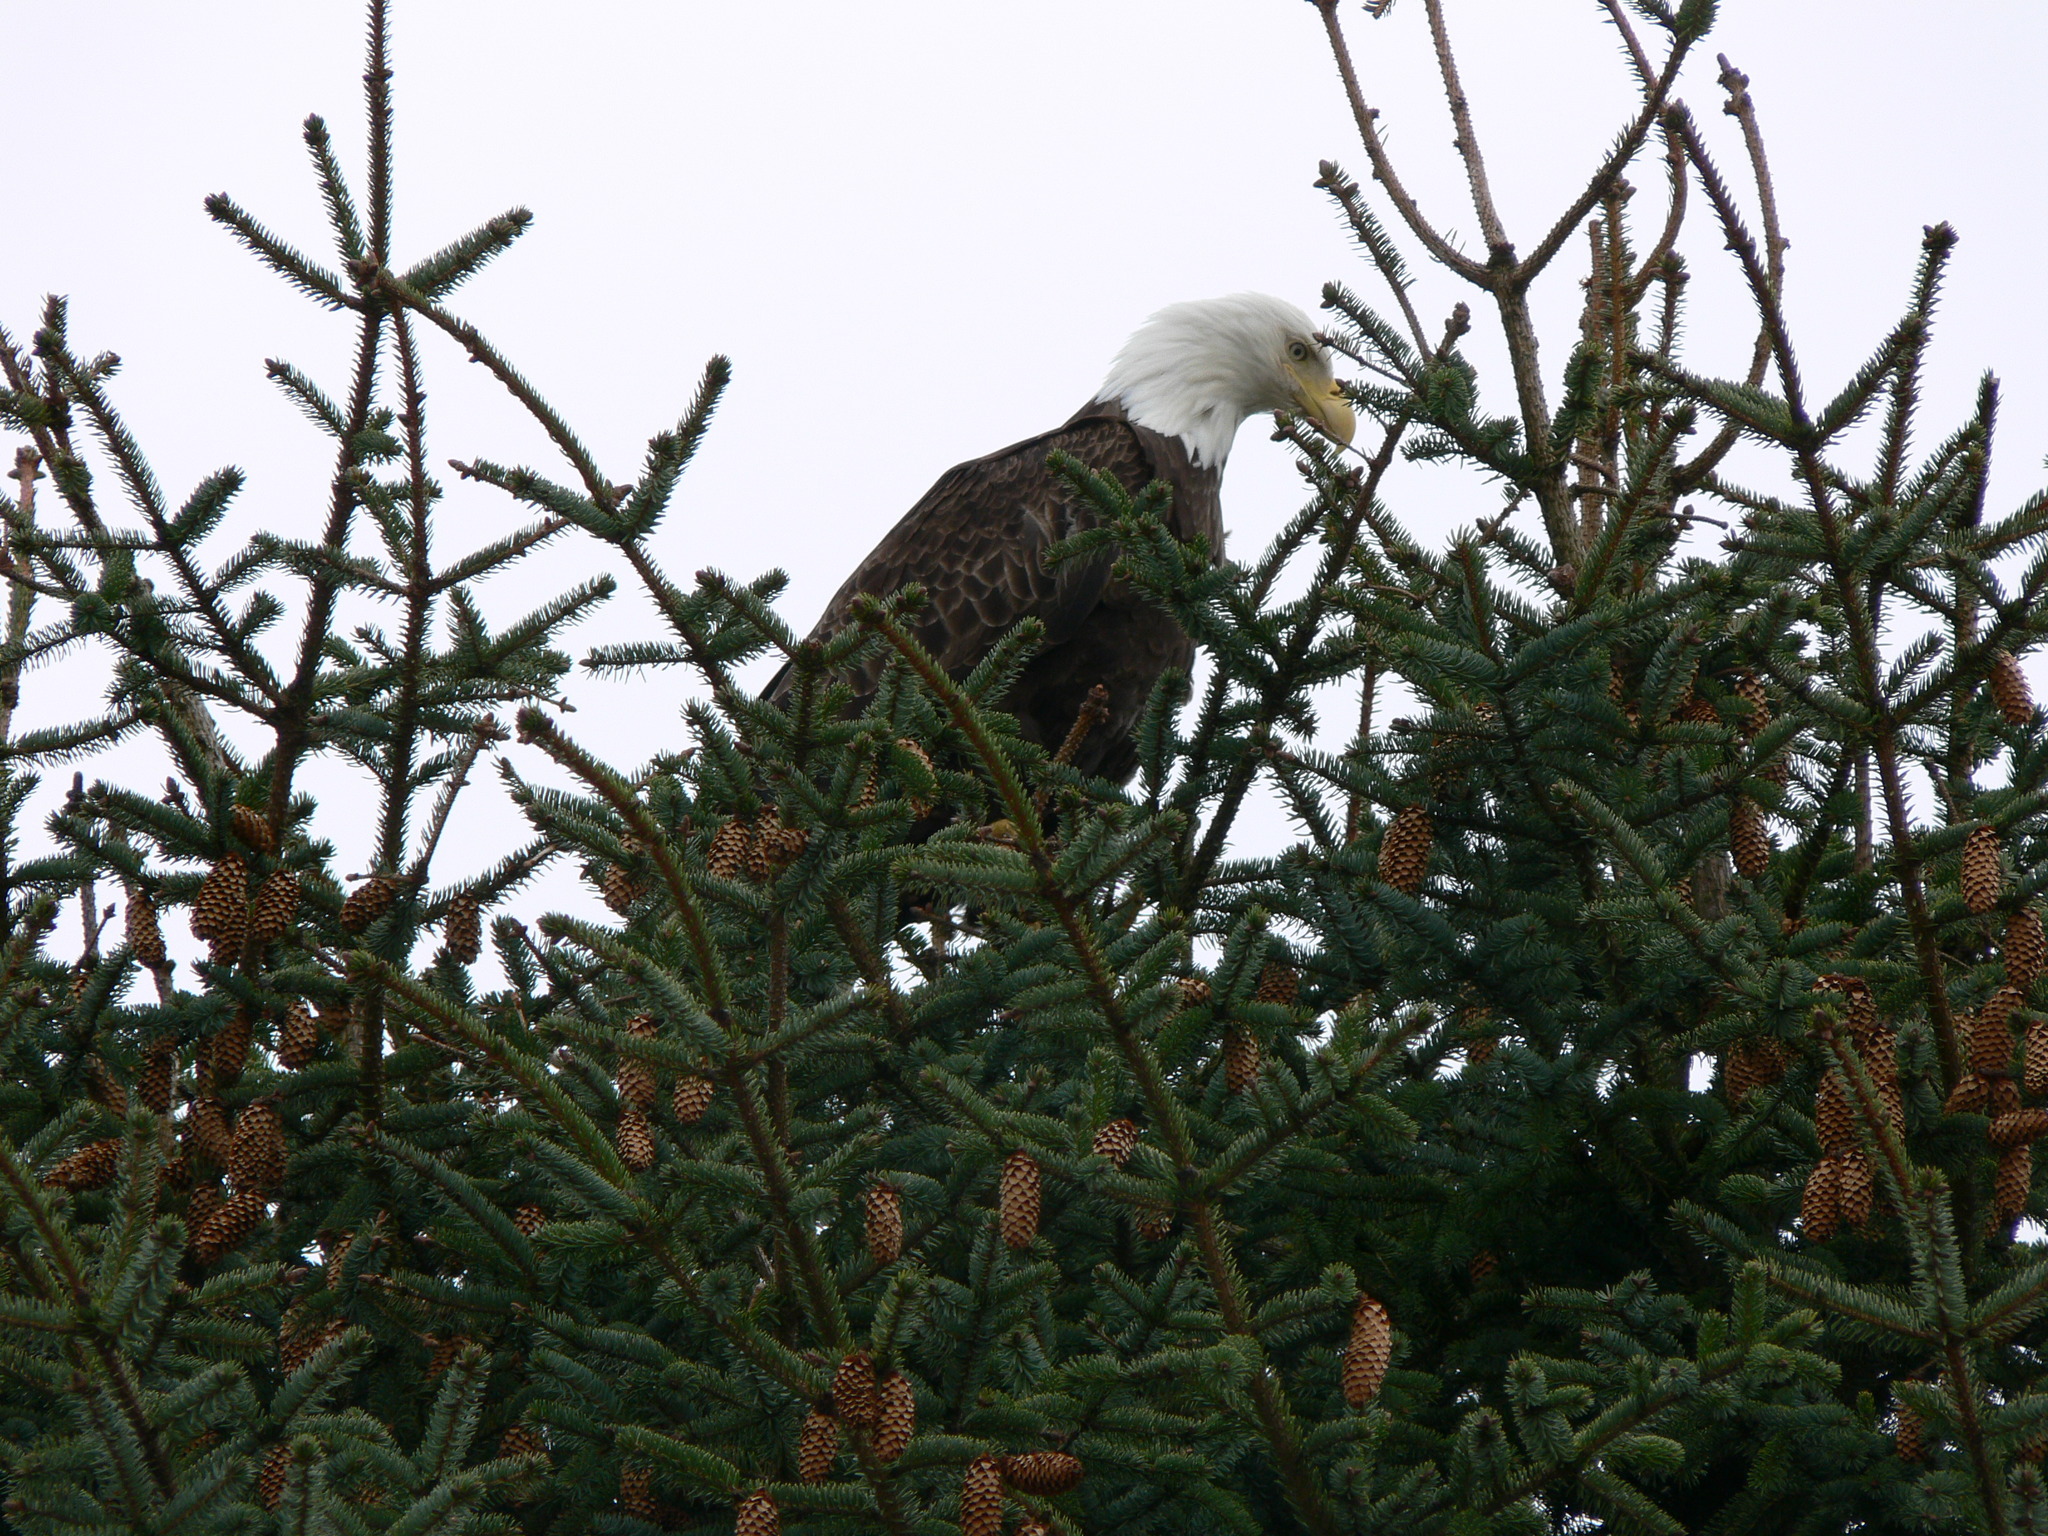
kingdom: Animalia
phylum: Chordata
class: Aves
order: Accipitriformes
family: Accipitridae
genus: Haliaeetus
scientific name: Haliaeetus leucocephalus
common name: Bald eagle
